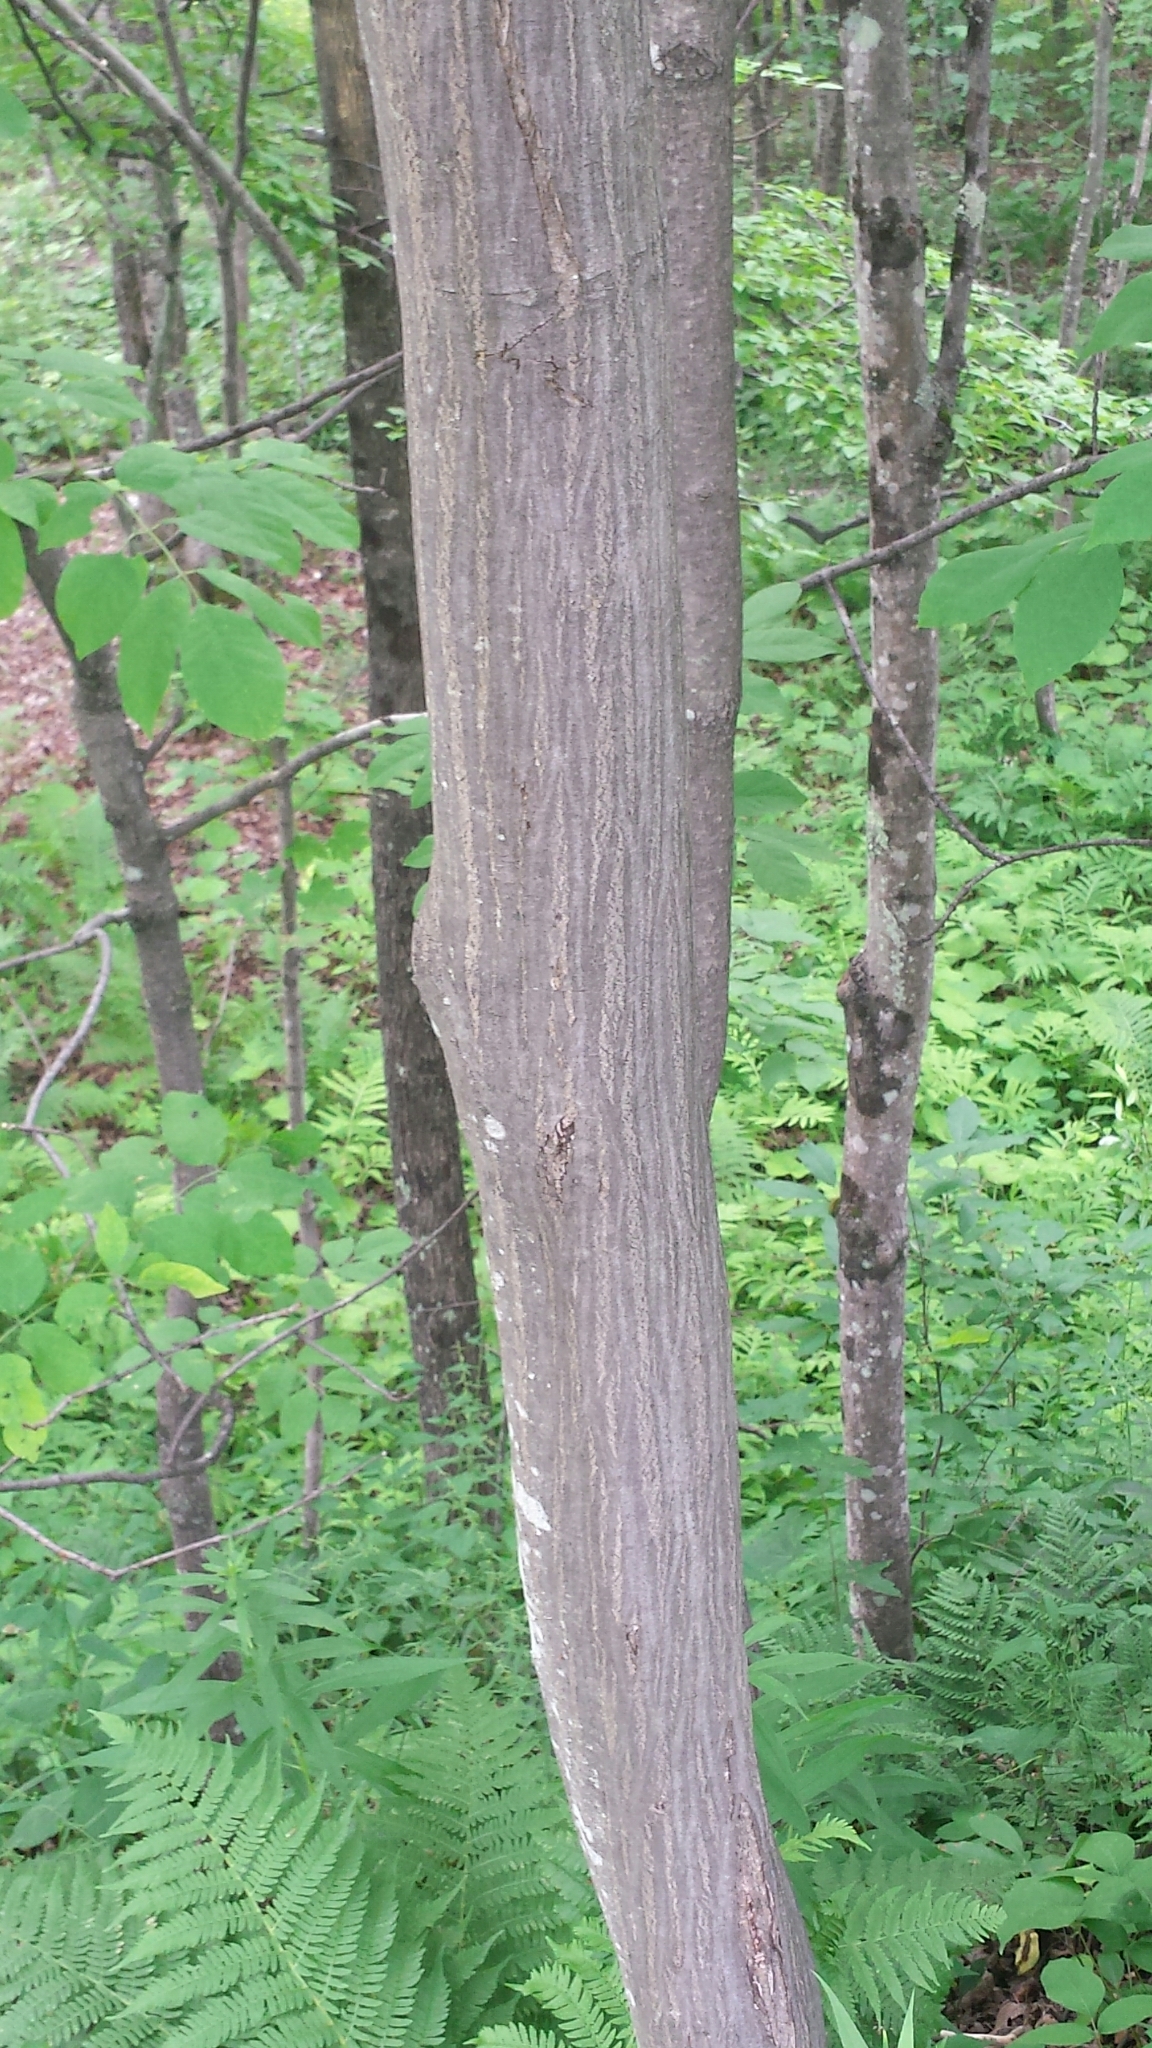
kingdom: Plantae
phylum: Tracheophyta
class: Magnoliopsida
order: Fagales
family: Betulaceae
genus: Carpinus
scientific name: Carpinus caroliniana
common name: American hornbeam
